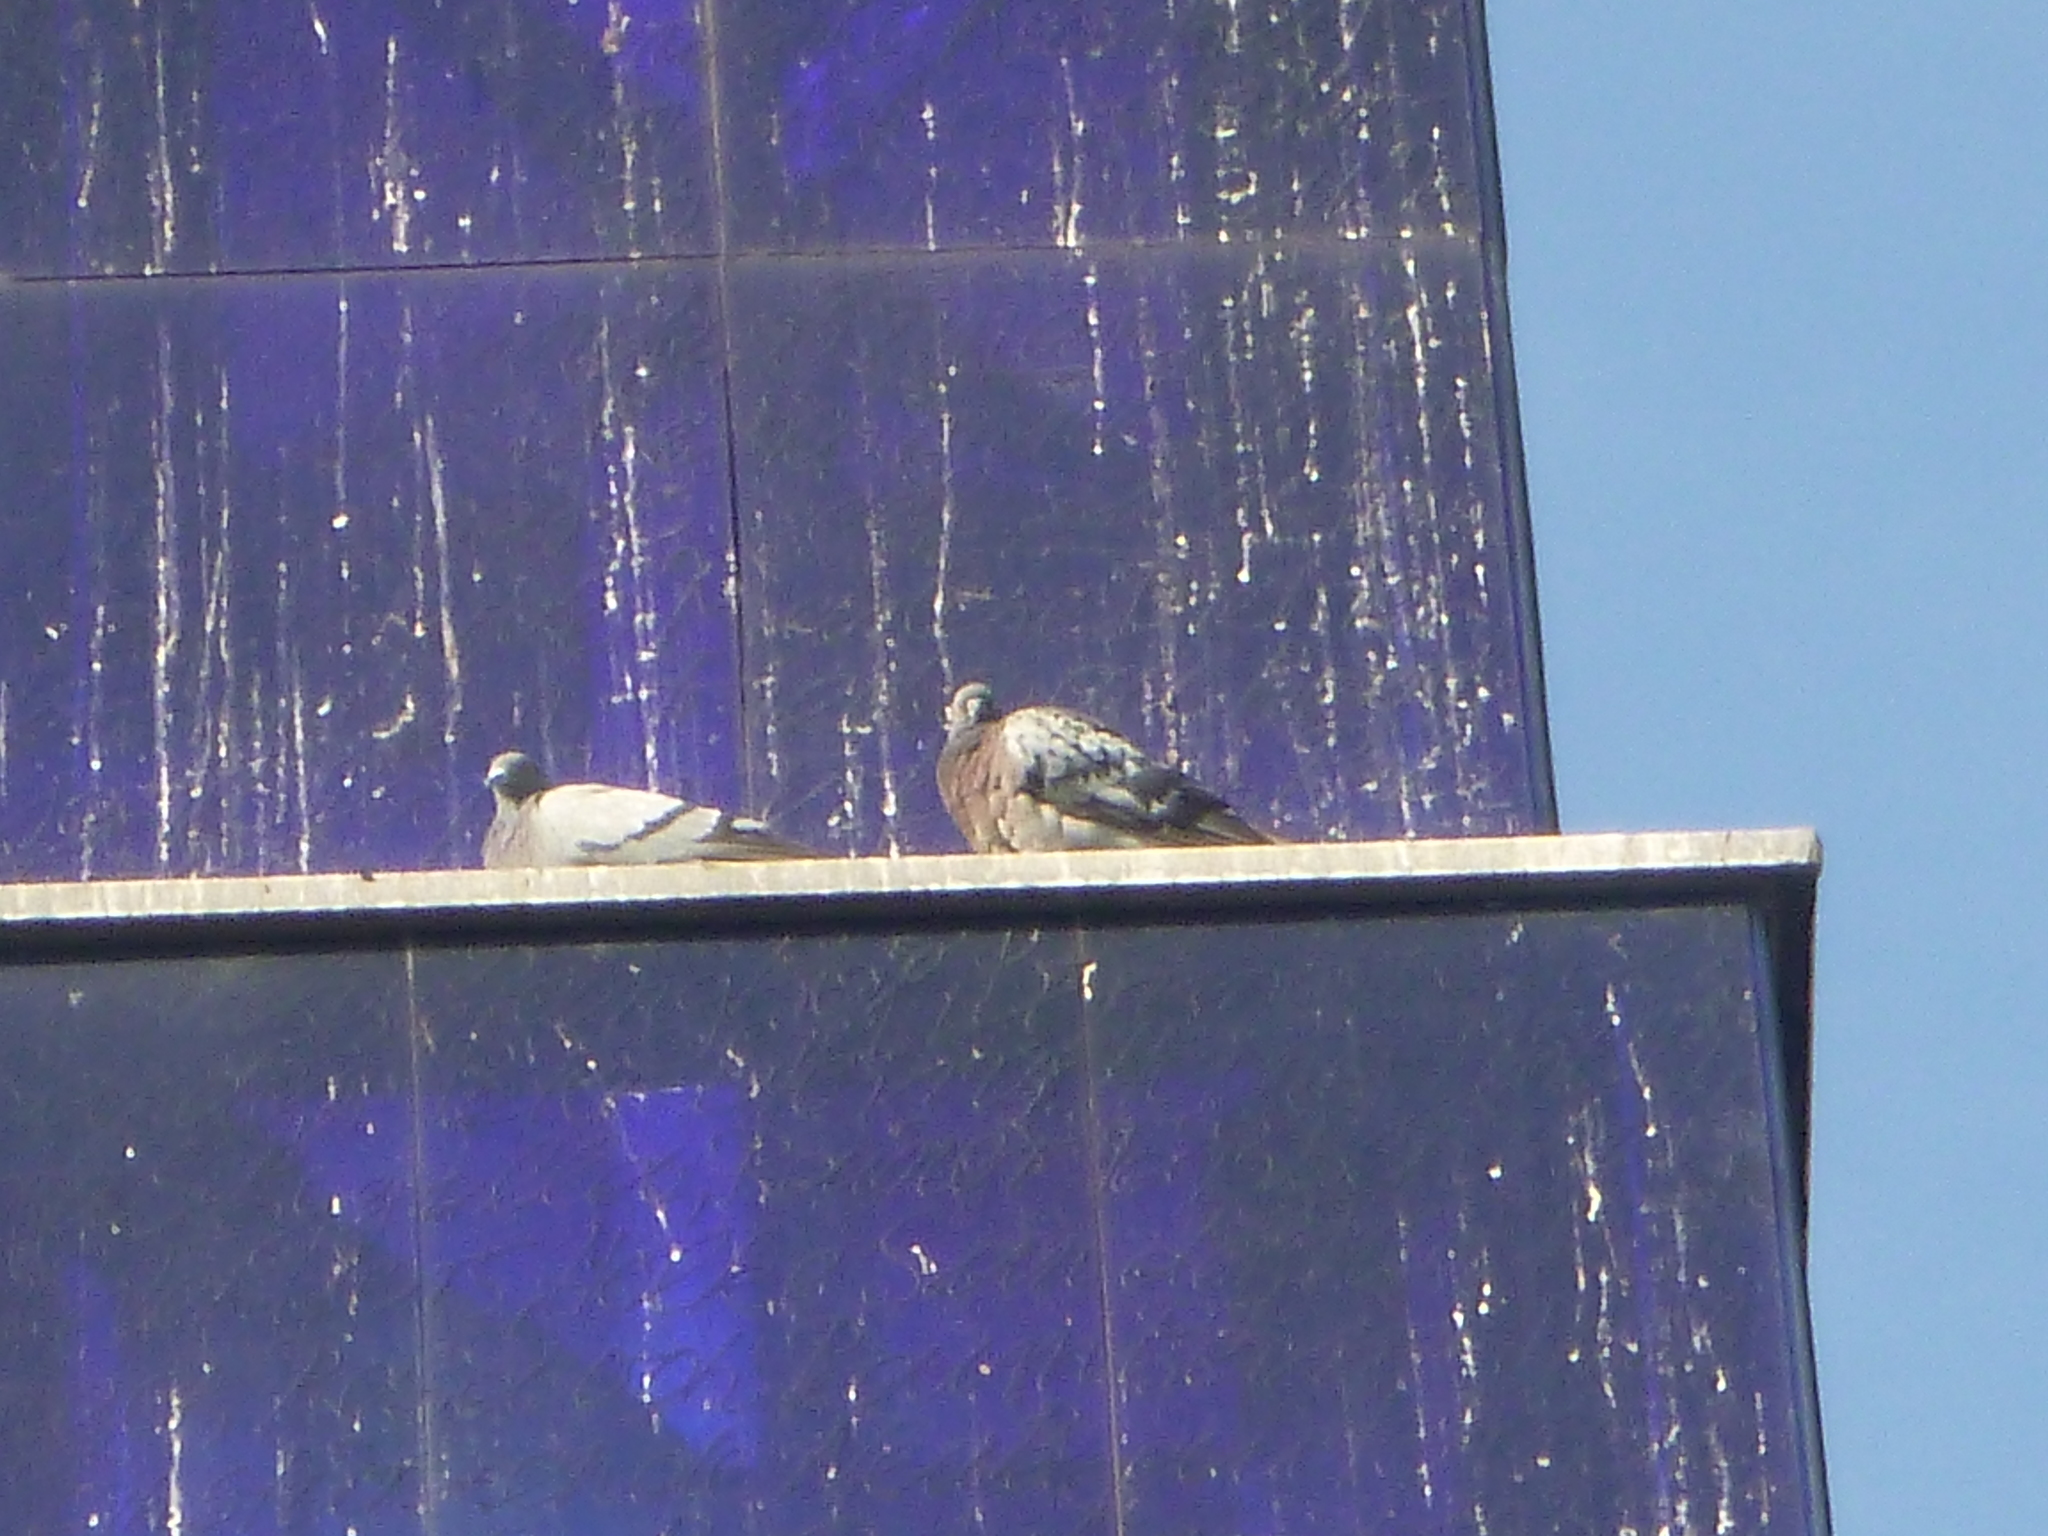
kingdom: Animalia
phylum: Chordata
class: Aves
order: Columbiformes
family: Columbidae
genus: Columba
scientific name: Columba livia
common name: Rock pigeon
